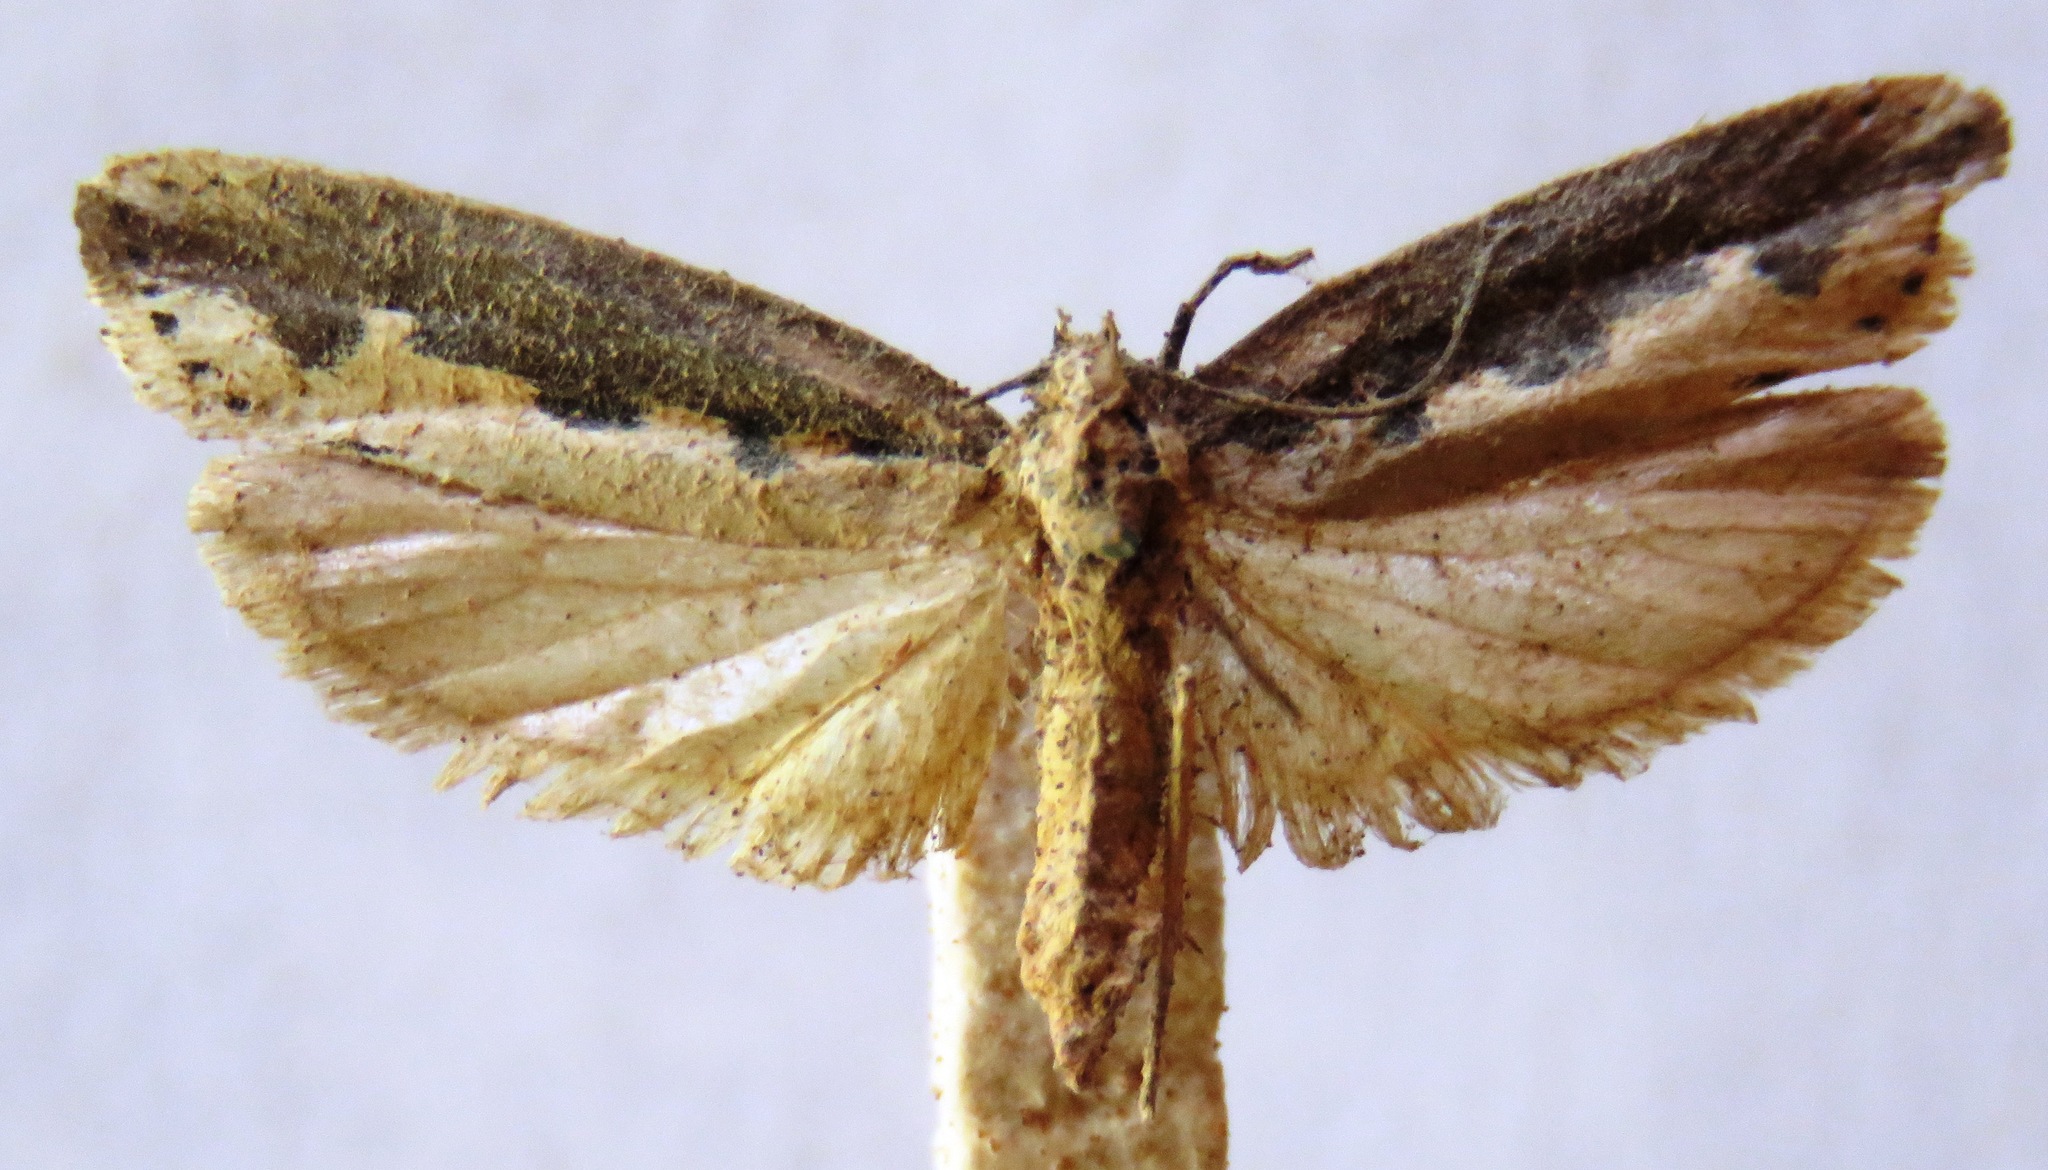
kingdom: Animalia
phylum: Arthropoda
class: Insecta
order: Lepidoptera
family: Ethmiidae
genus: Ethmia
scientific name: Ethmia bipunctella
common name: Bordered ermel
